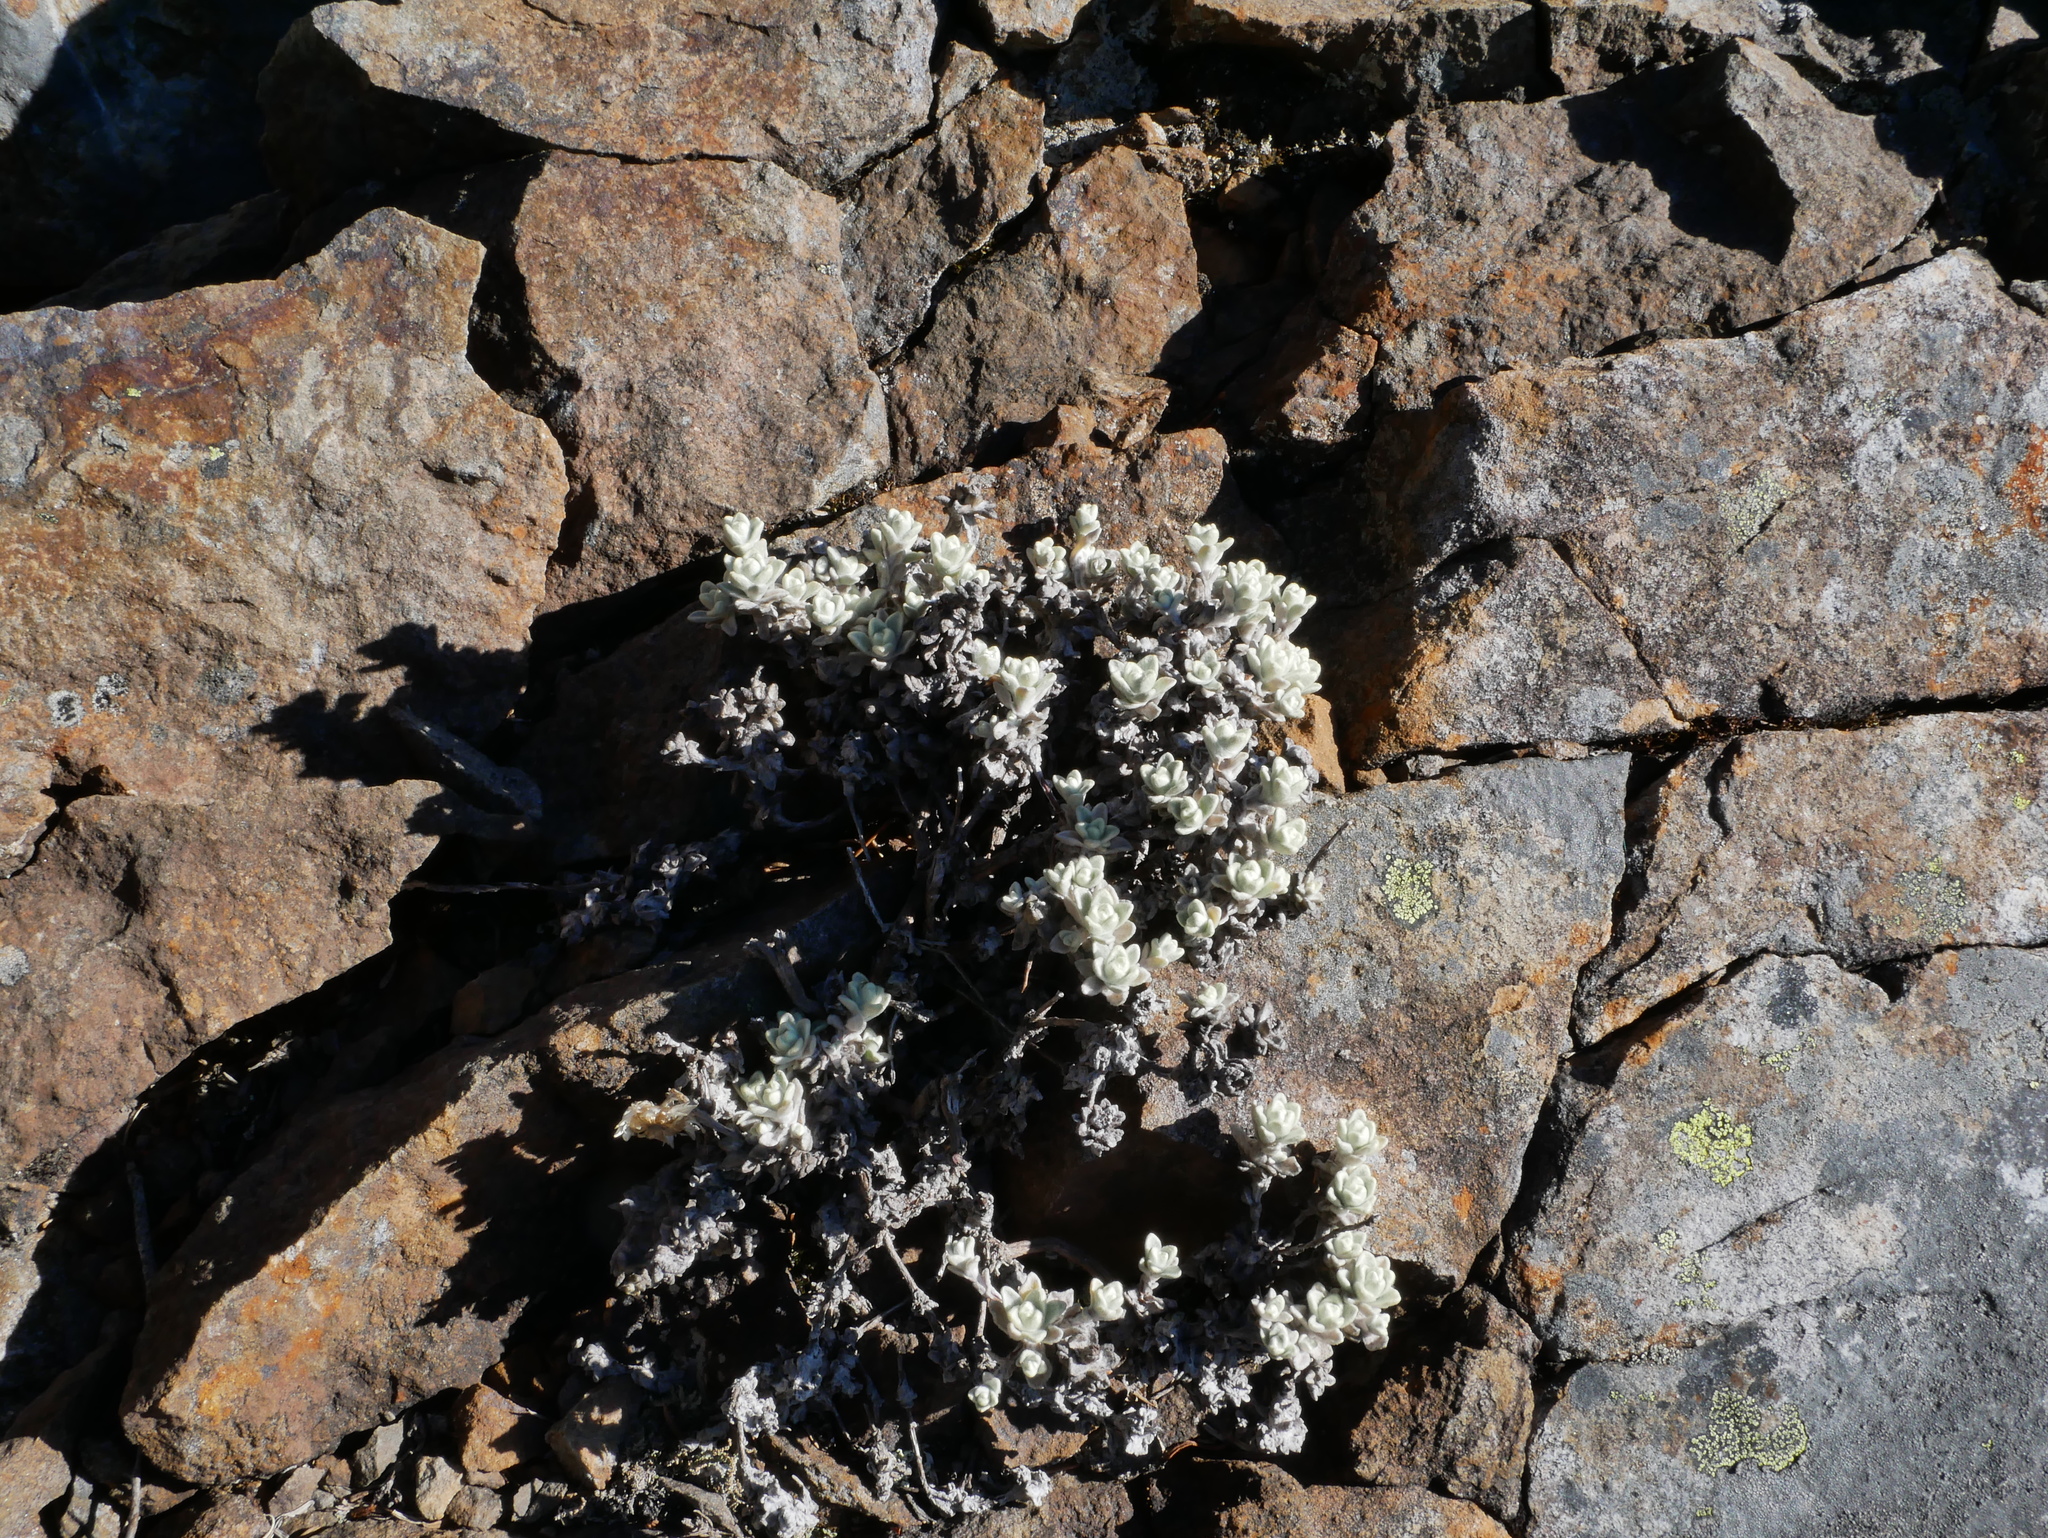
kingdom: Plantae
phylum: Tracheophyta
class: Magnoliopsida
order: Asterales
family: Asteraceae
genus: Anaphalis
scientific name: Anaphalis nepalensis
